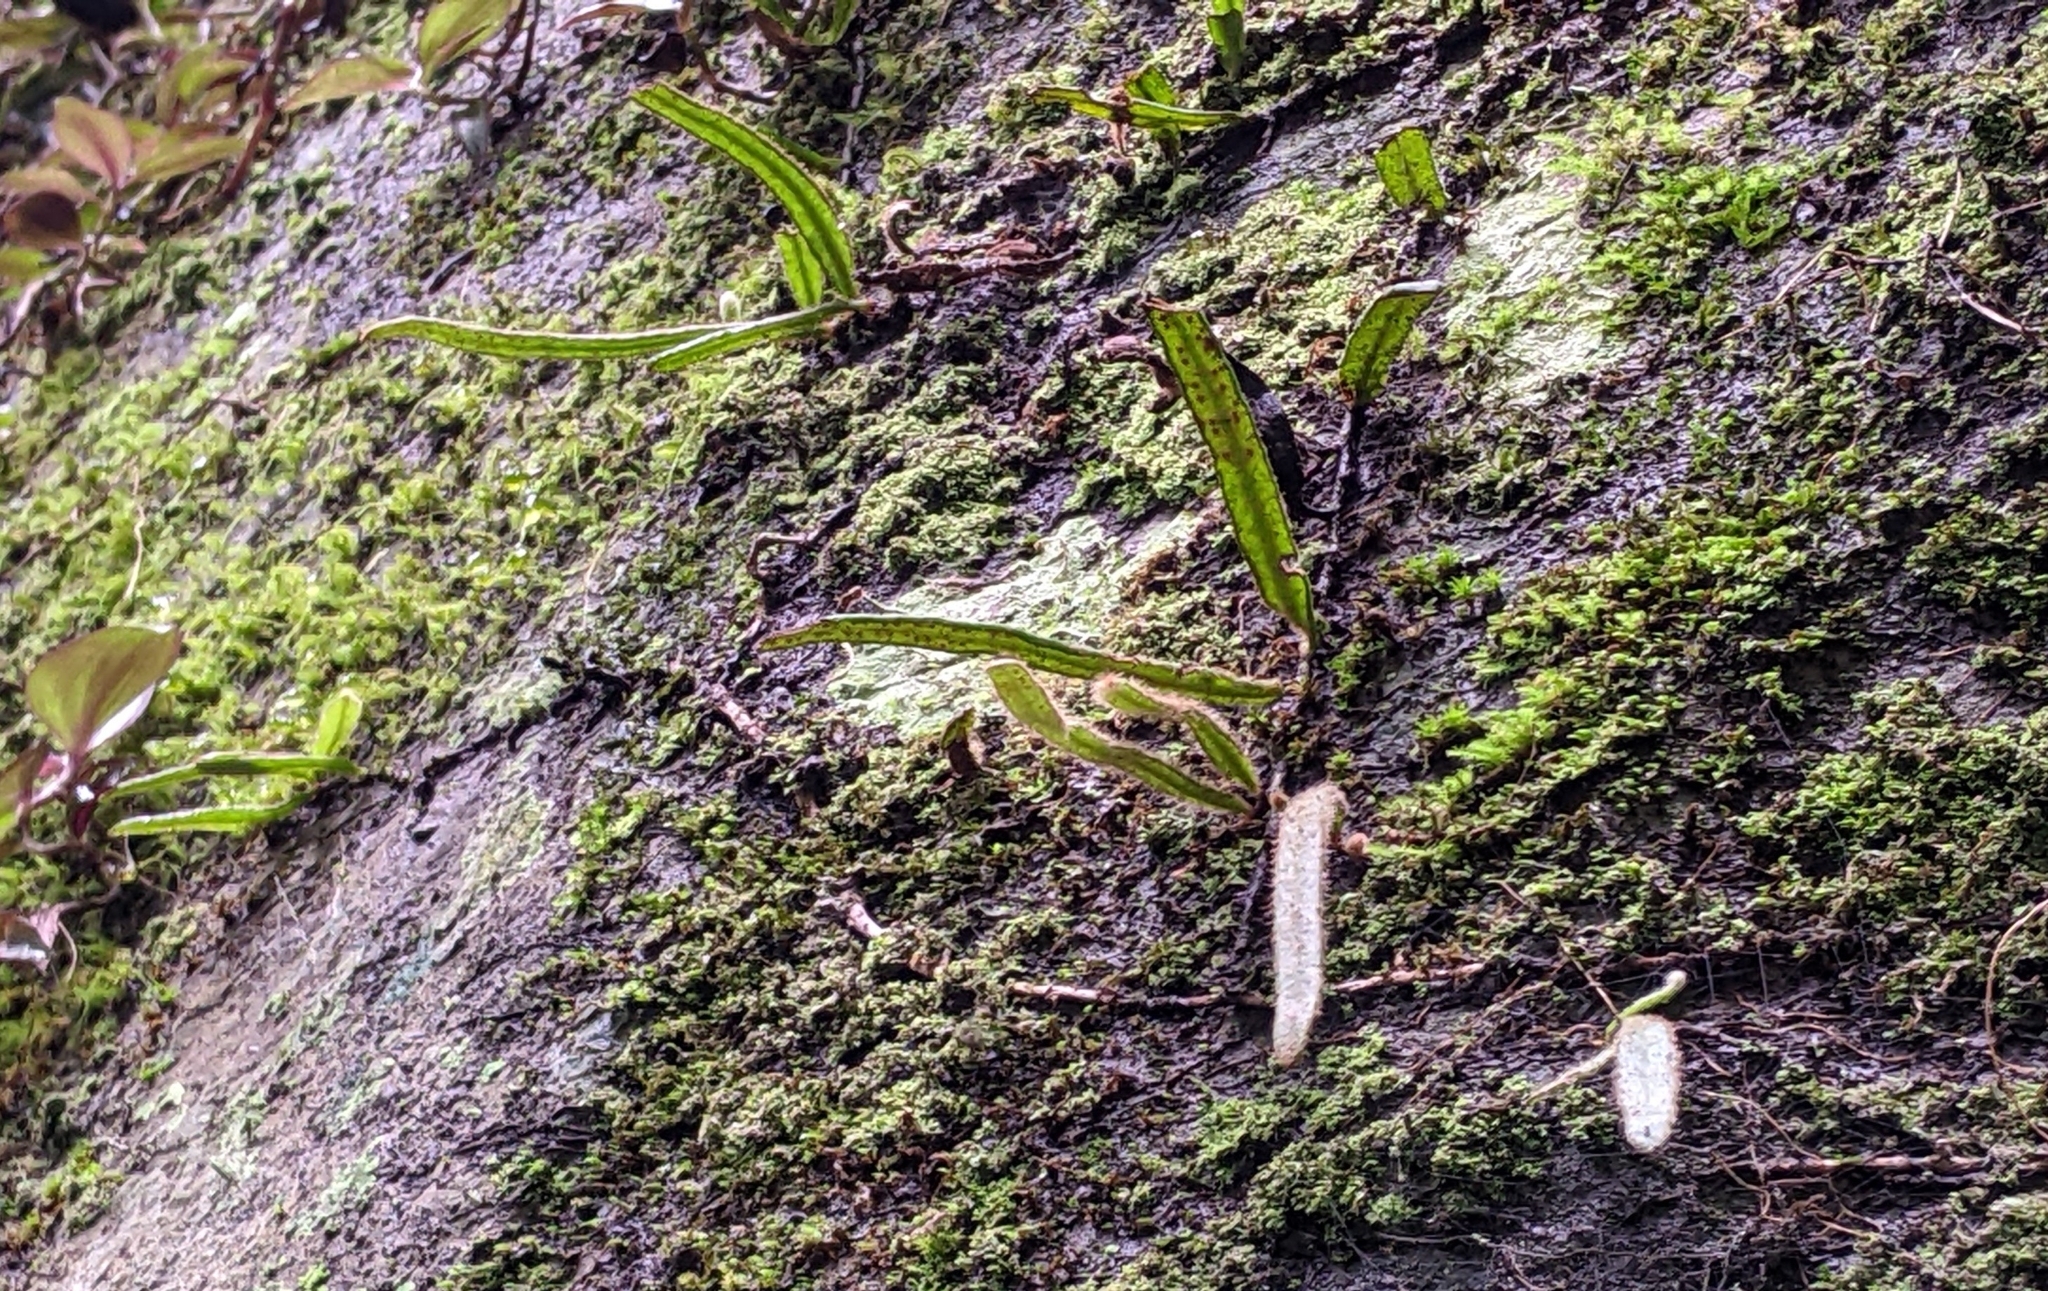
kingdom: Plantae
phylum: Tracheophyta
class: Polypodiopsida
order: Polypodiales
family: Polypodiaceae
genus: Pyrrosia
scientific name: Pyrrosia linearifolia
